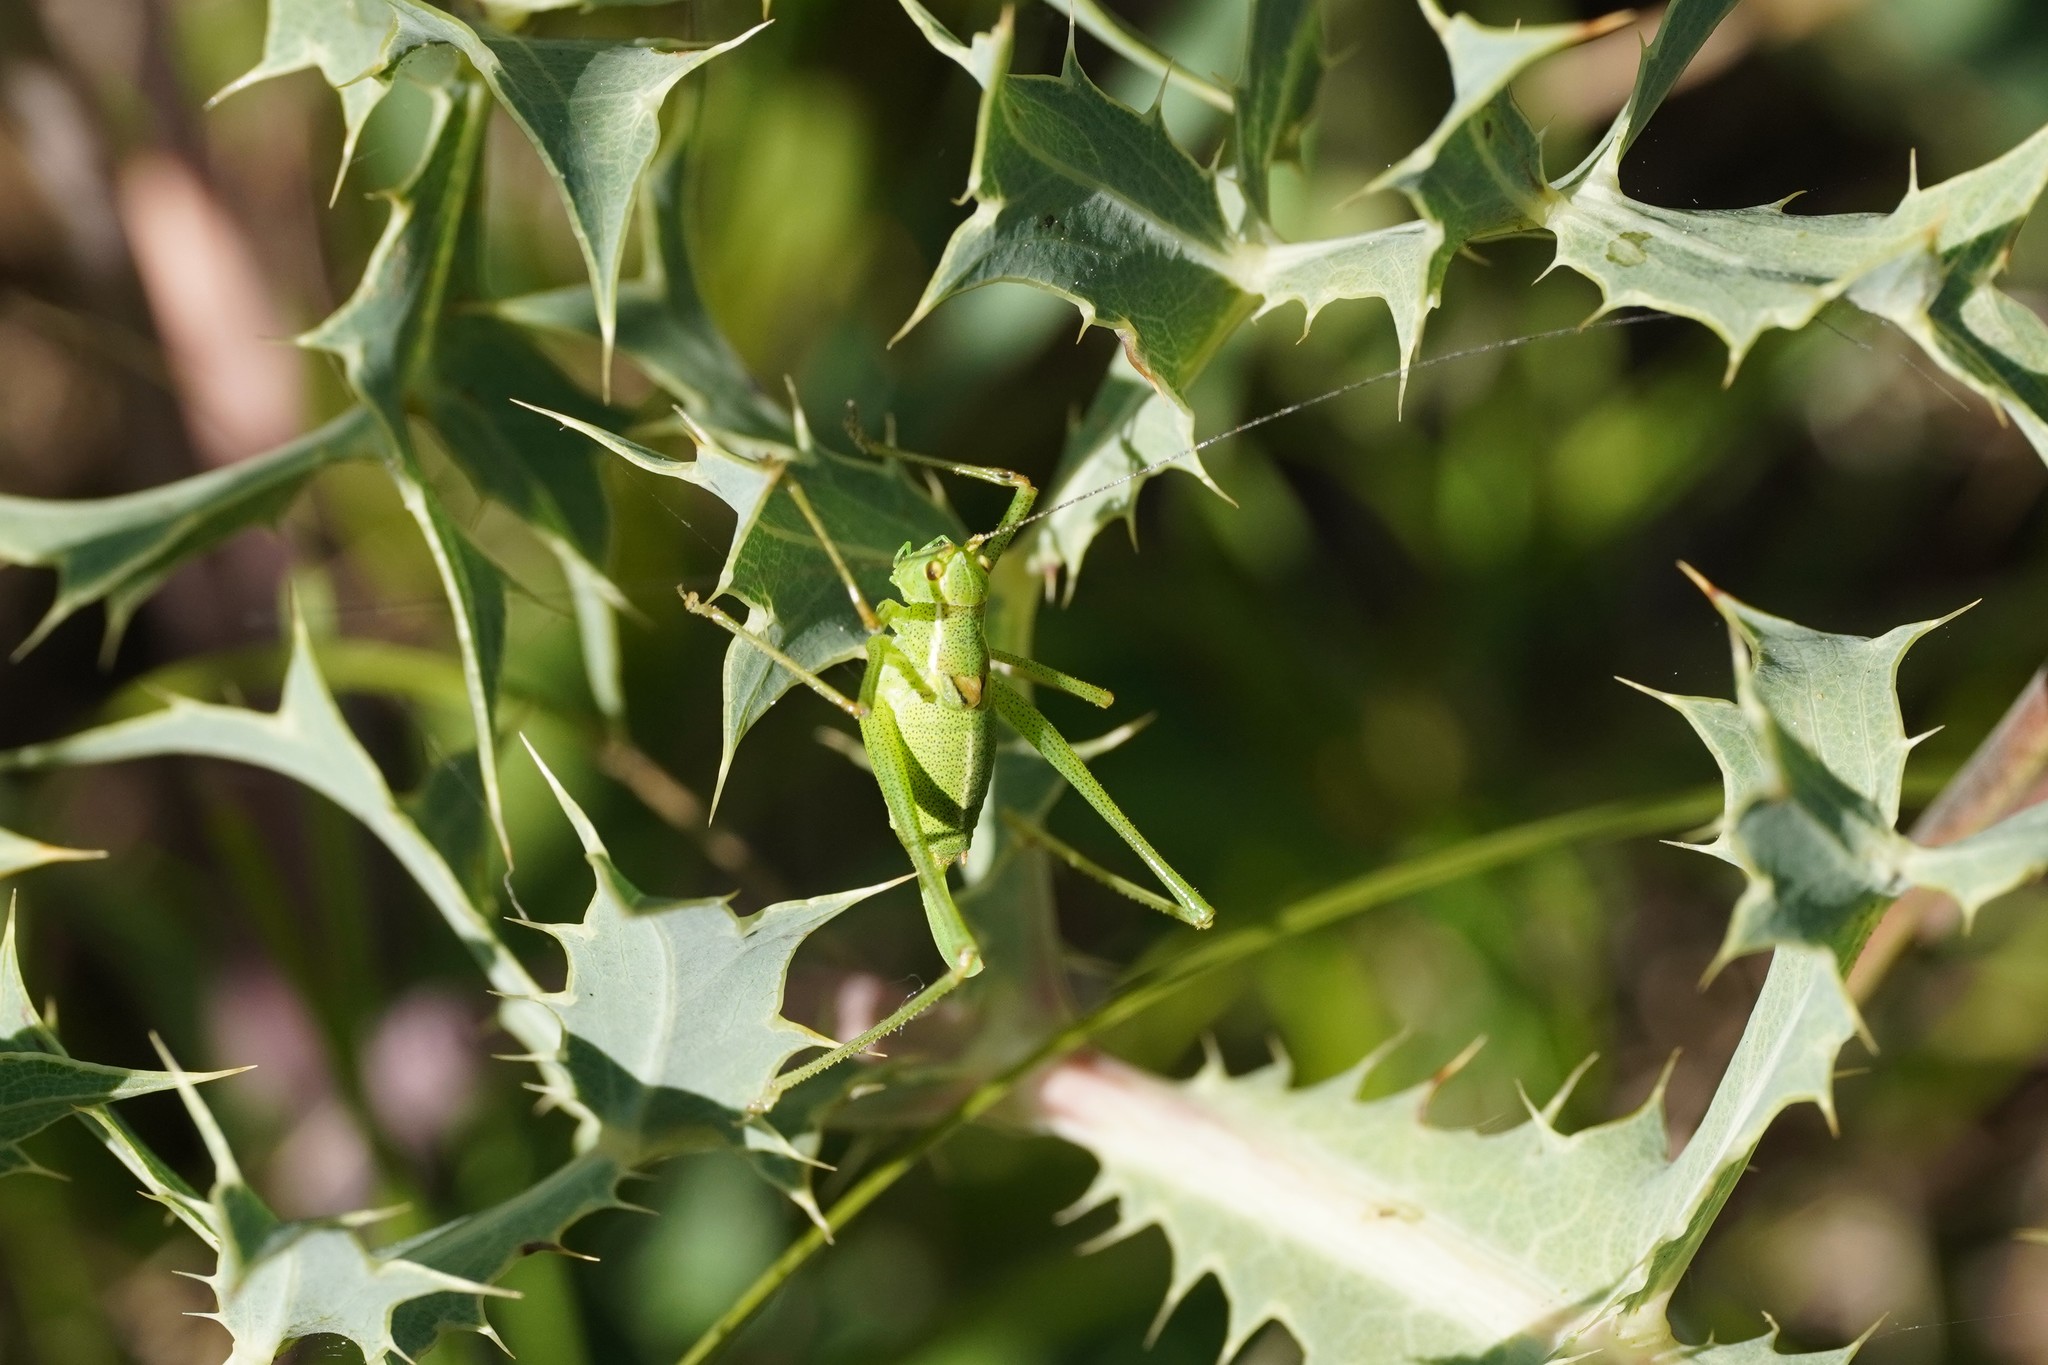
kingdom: Animalia
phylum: Arthropoda
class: Insecta
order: Orthoptera
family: Tettigoniidae
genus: Leptophyes
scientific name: Leptophyes punctatissima
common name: Speckled bush-cricket
